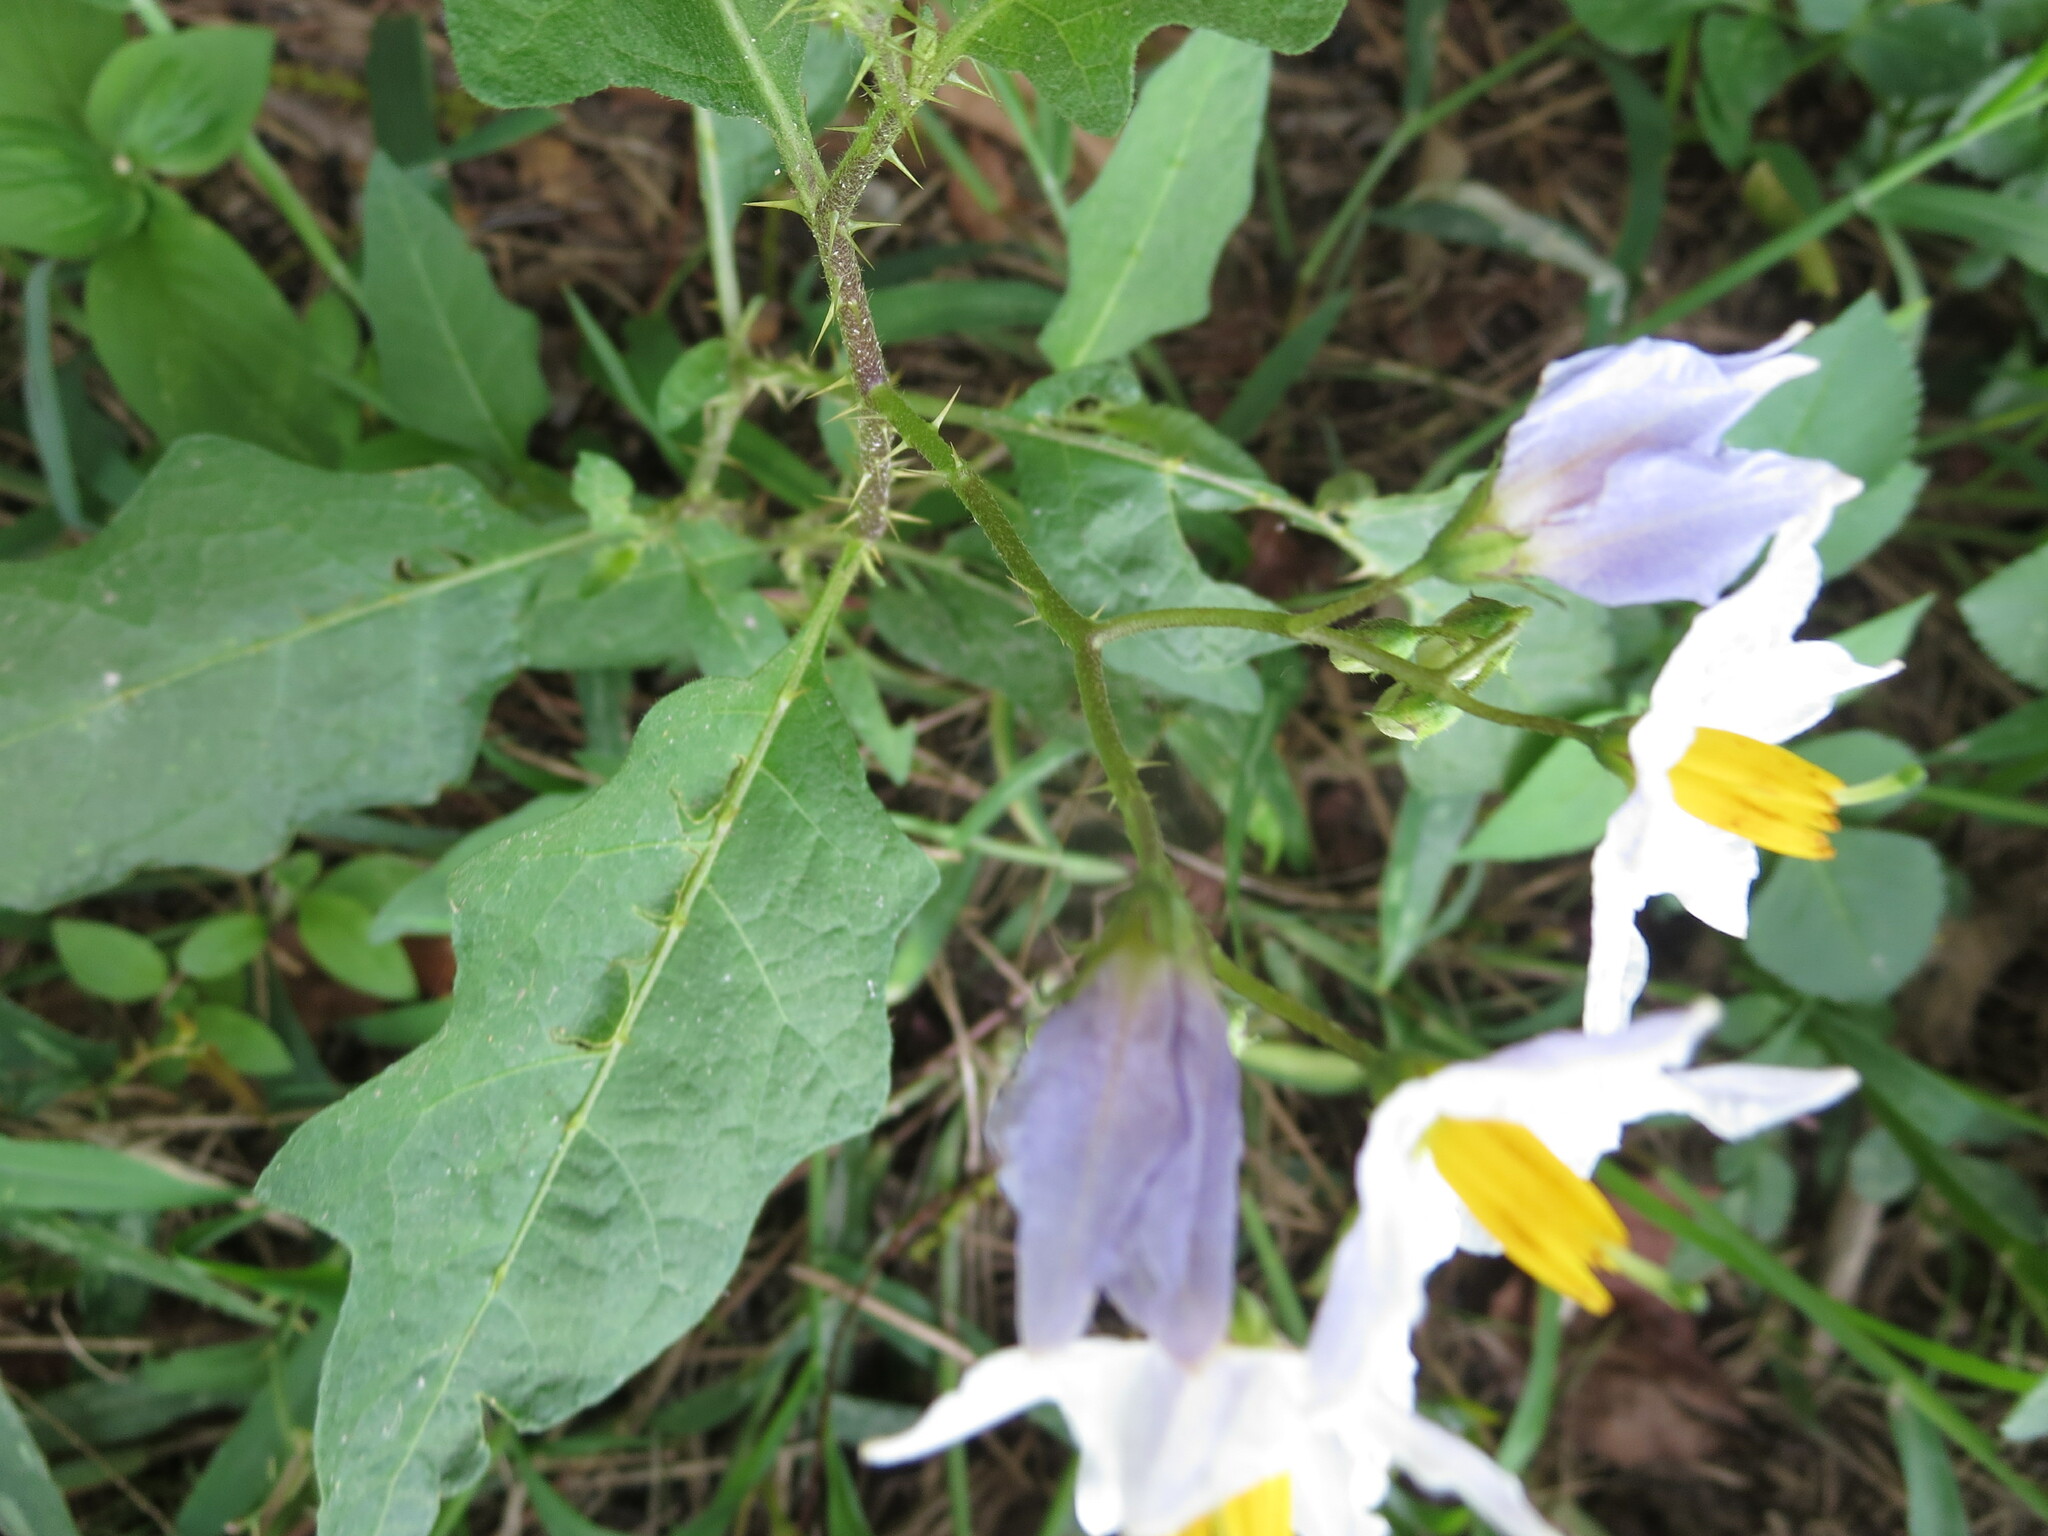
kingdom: Plantae
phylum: Tracheophyta
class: Magnoliopsida
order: Solanales
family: Solanaceae
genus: Solanum
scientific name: Solanum carolinense
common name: Horse-nettle
